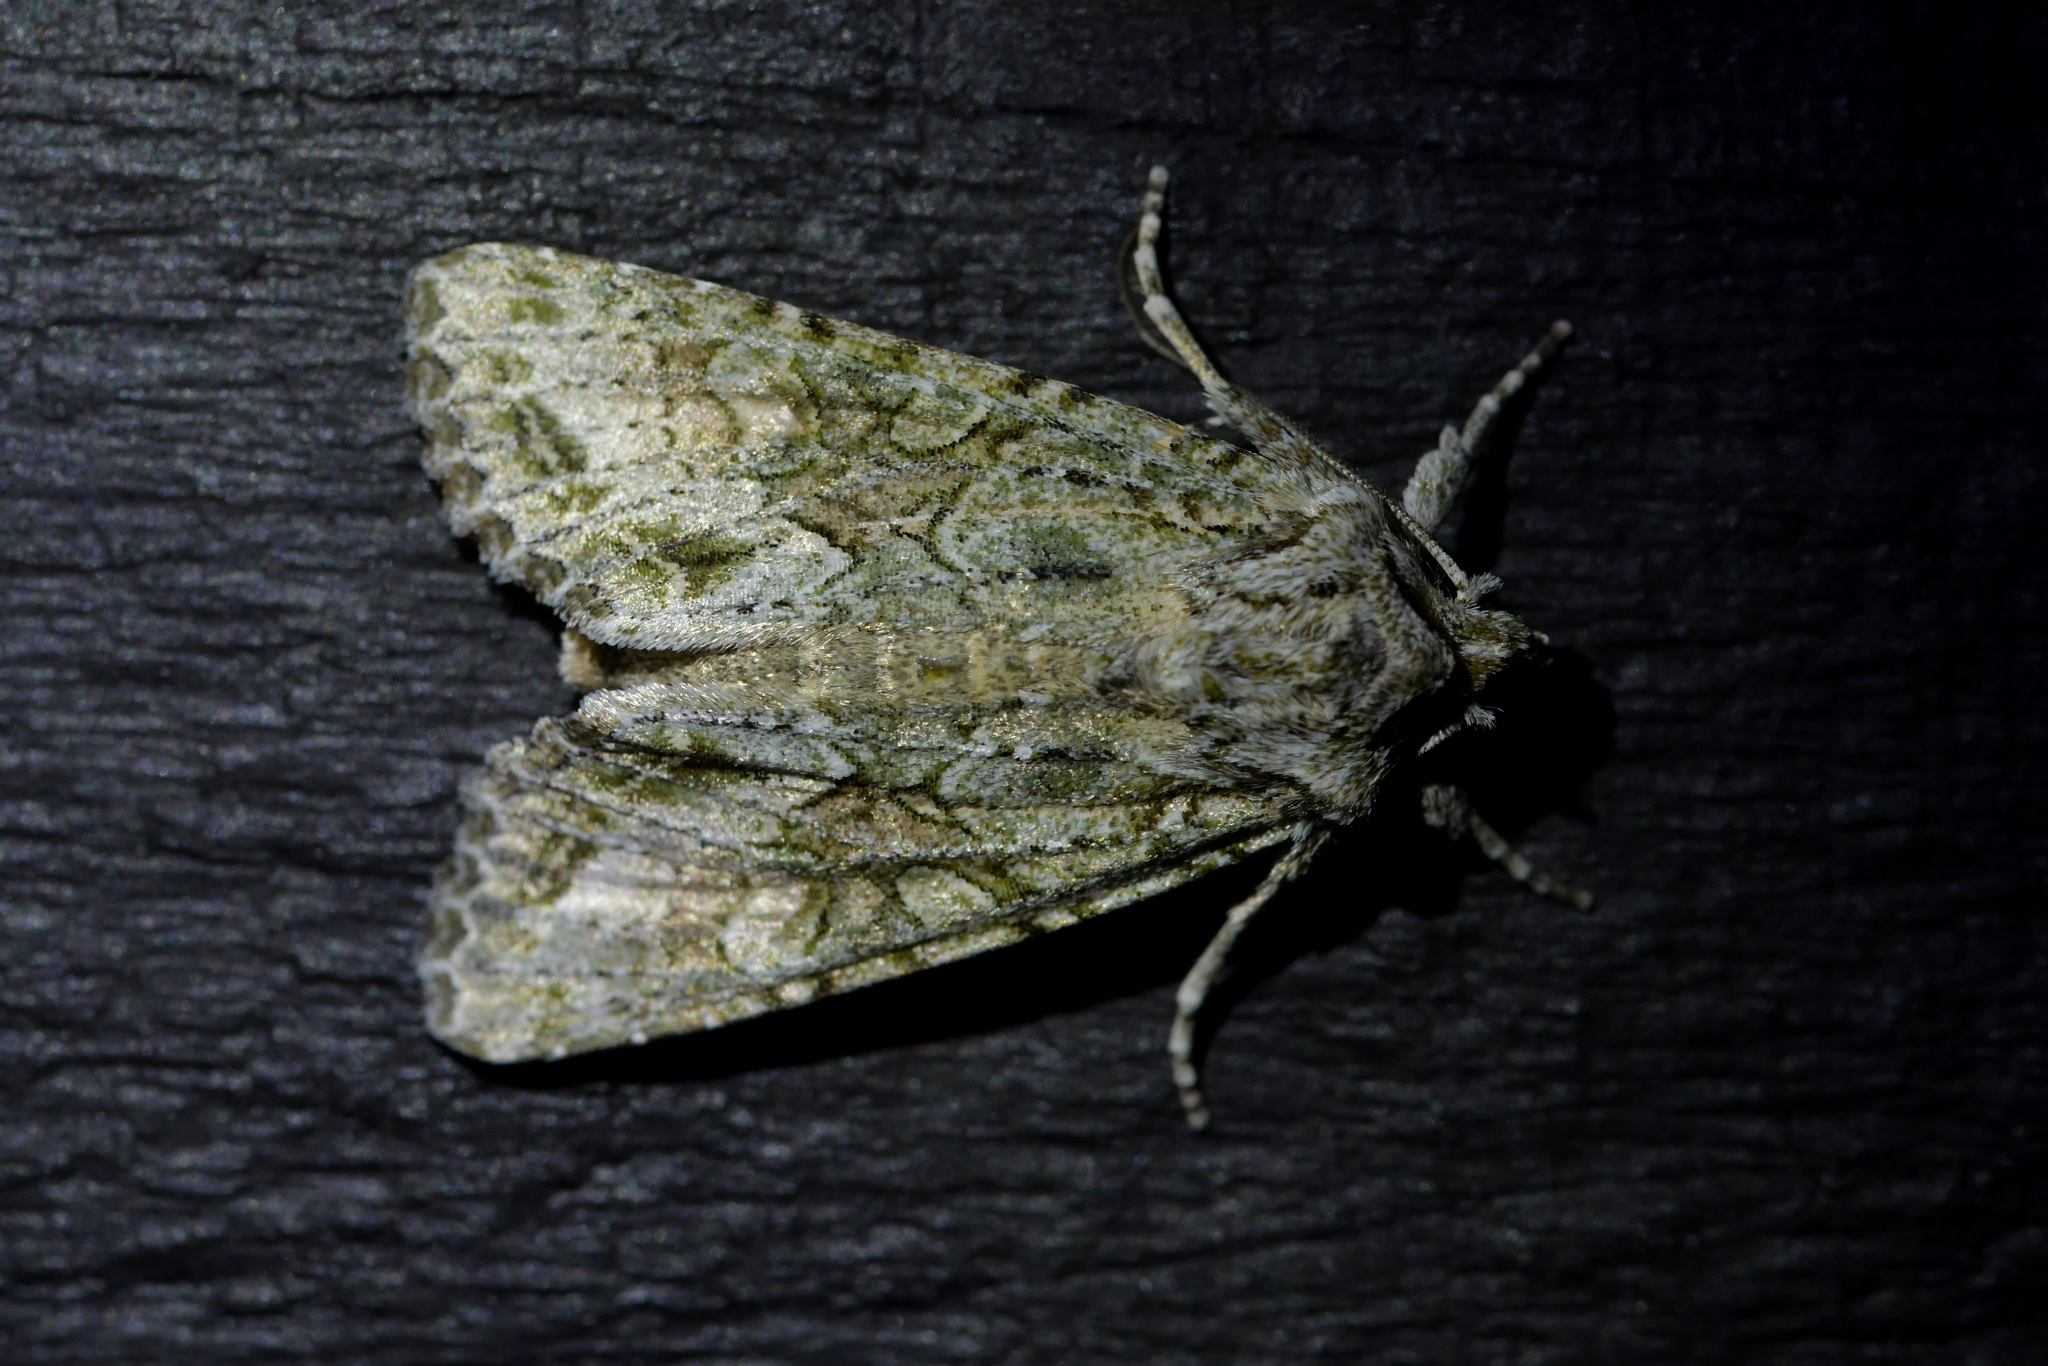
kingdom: Animalia
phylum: Arthropoda
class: Insecta
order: Lepidoptera
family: Noctuidae
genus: Ichneutica
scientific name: Ichneutica mutans
